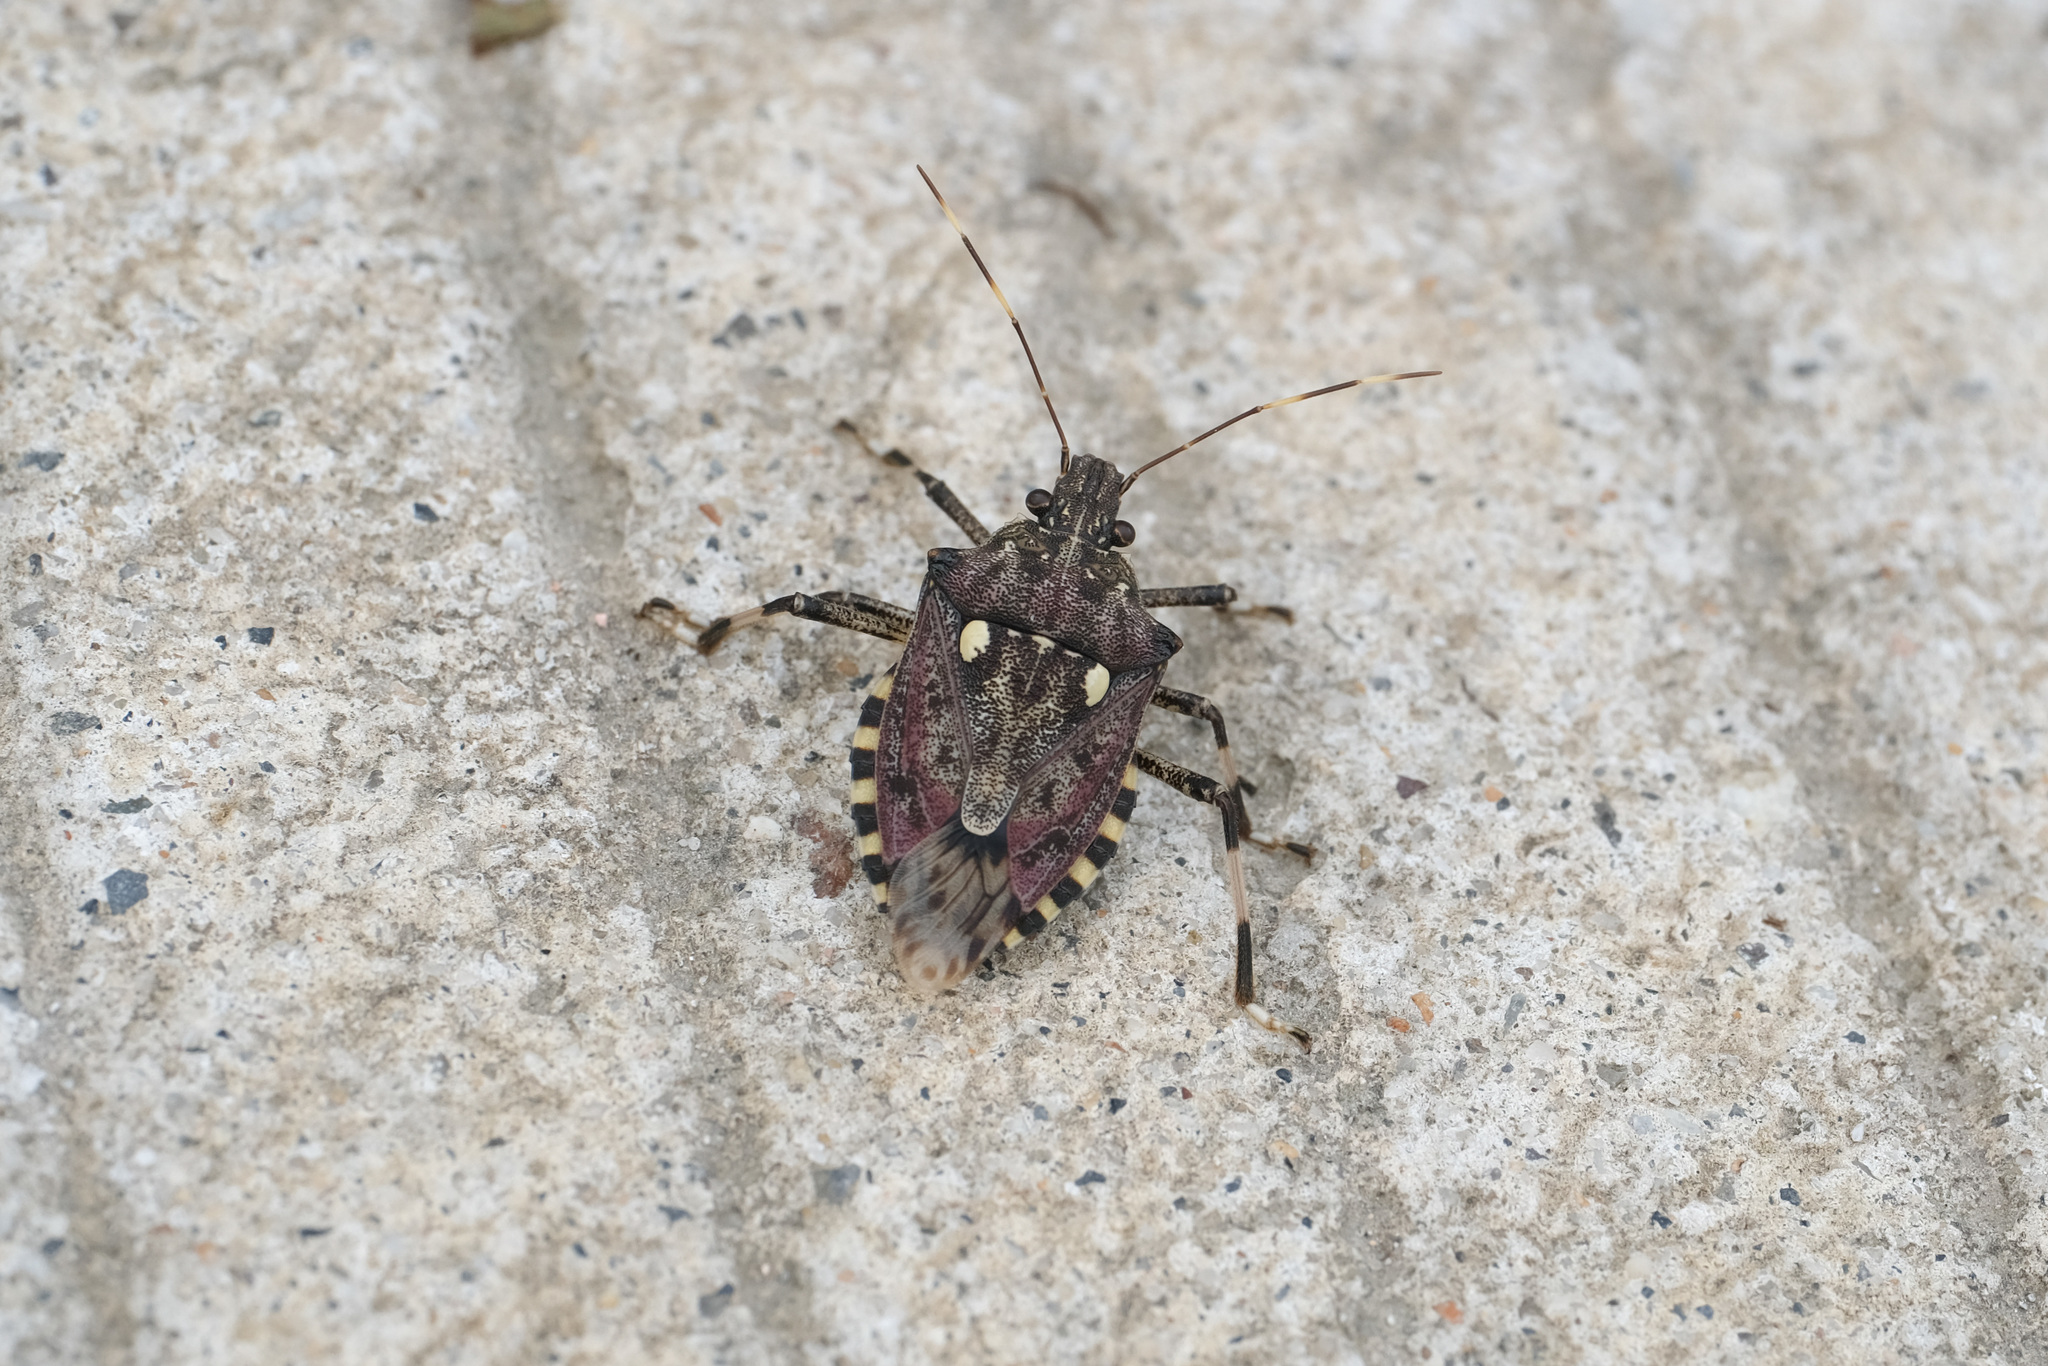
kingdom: Animalia
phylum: Arthropoda
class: Insecta
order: Hemiptera
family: Pentatomidae
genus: Dalpada
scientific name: Dalpada cinctipes
